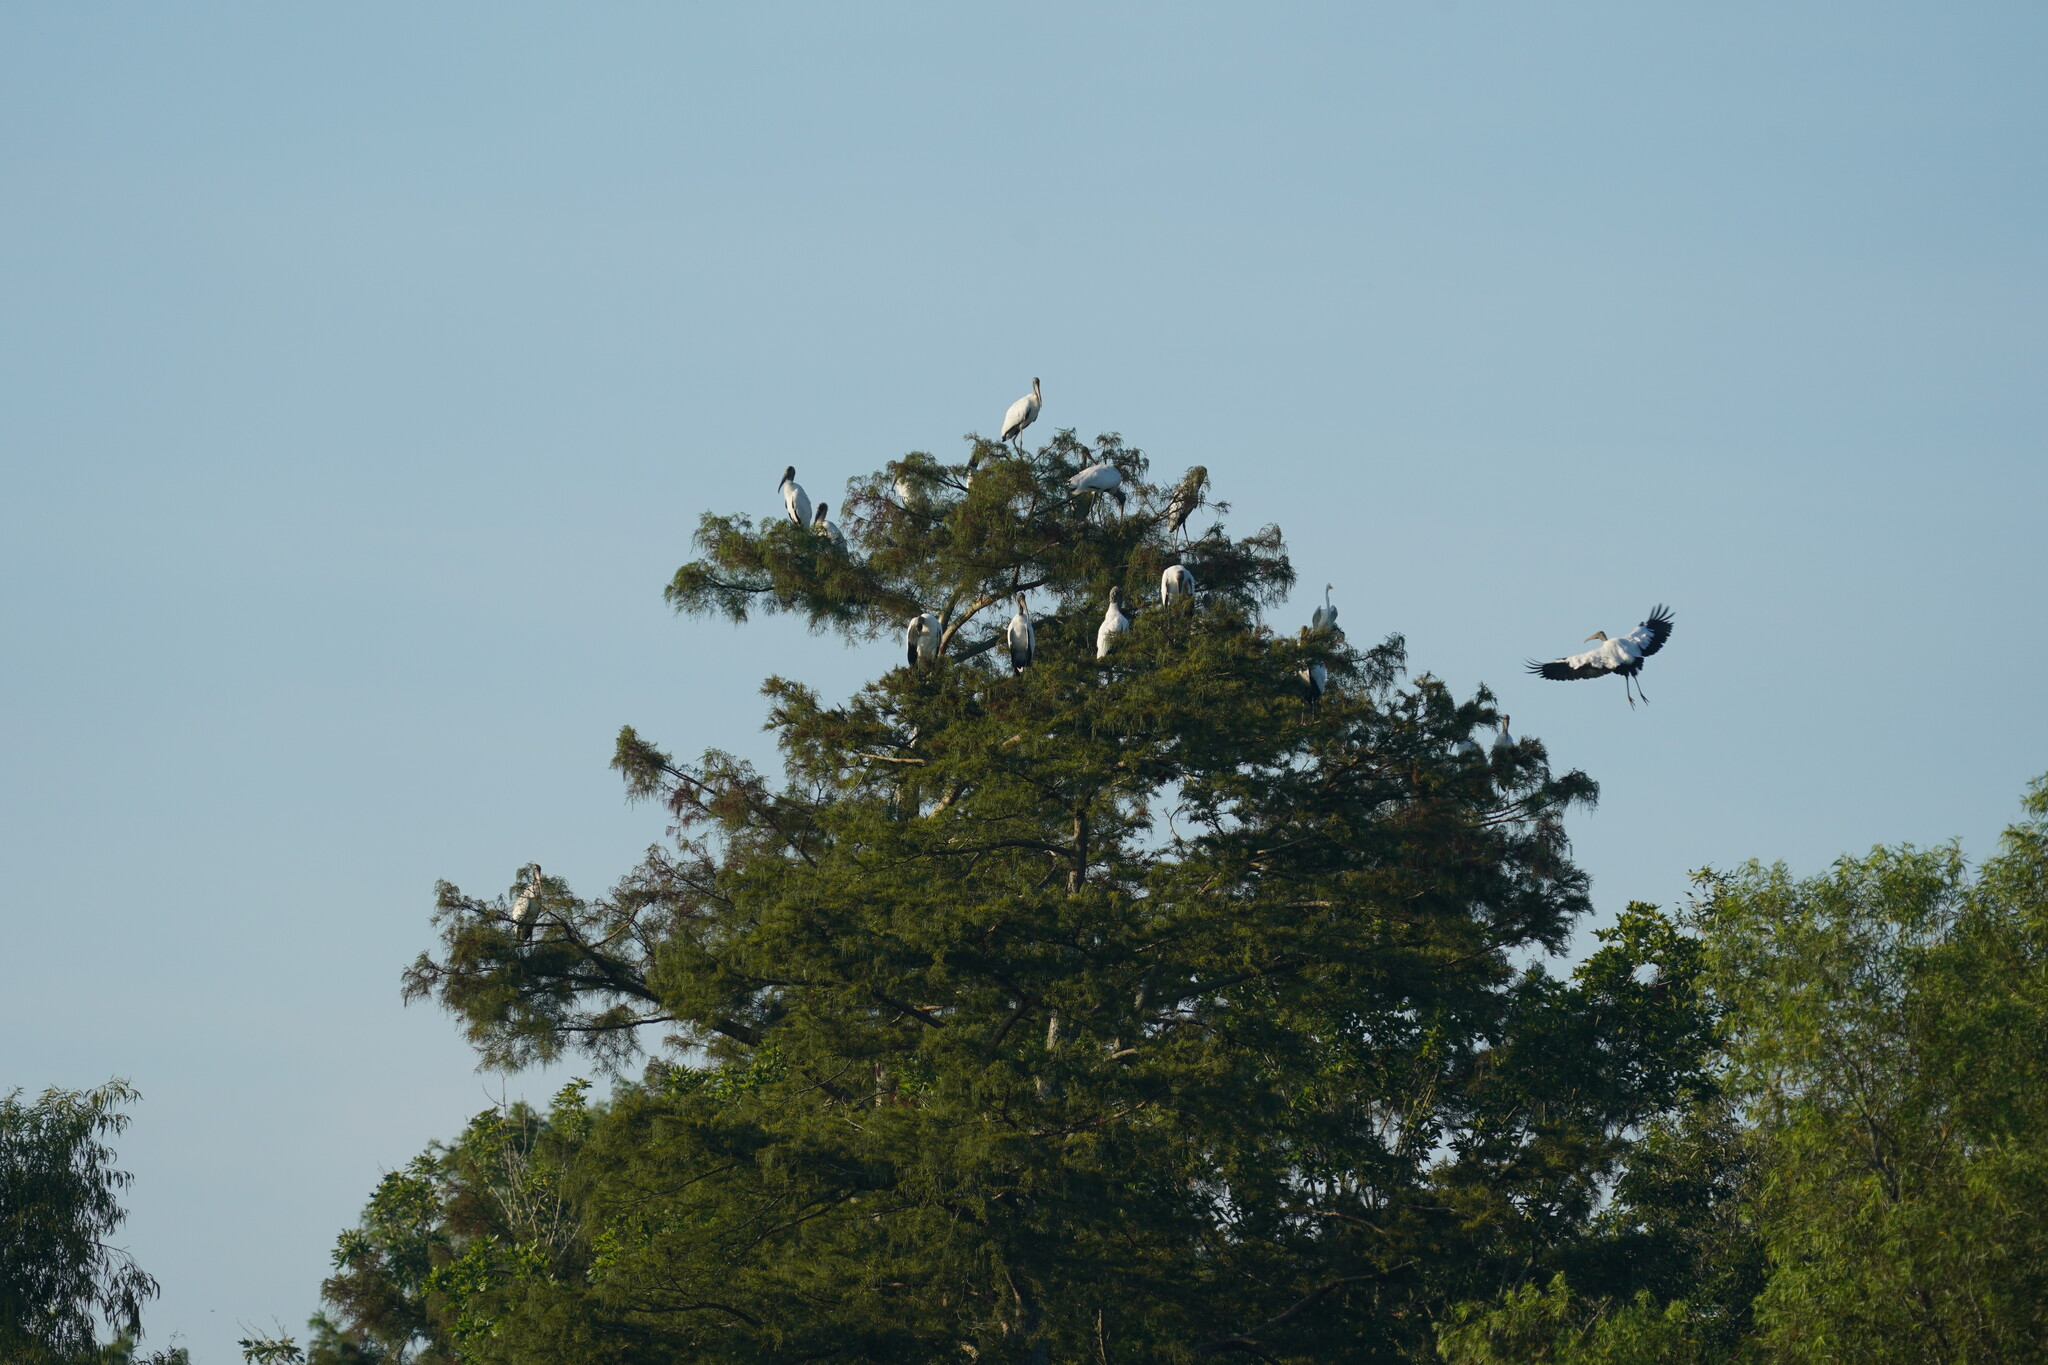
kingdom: Animalia
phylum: Chordata
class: Aves
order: Ciconiiformes
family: Ciconiidae
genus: Mycteria
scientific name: Mycteria americana
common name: Wood stork
